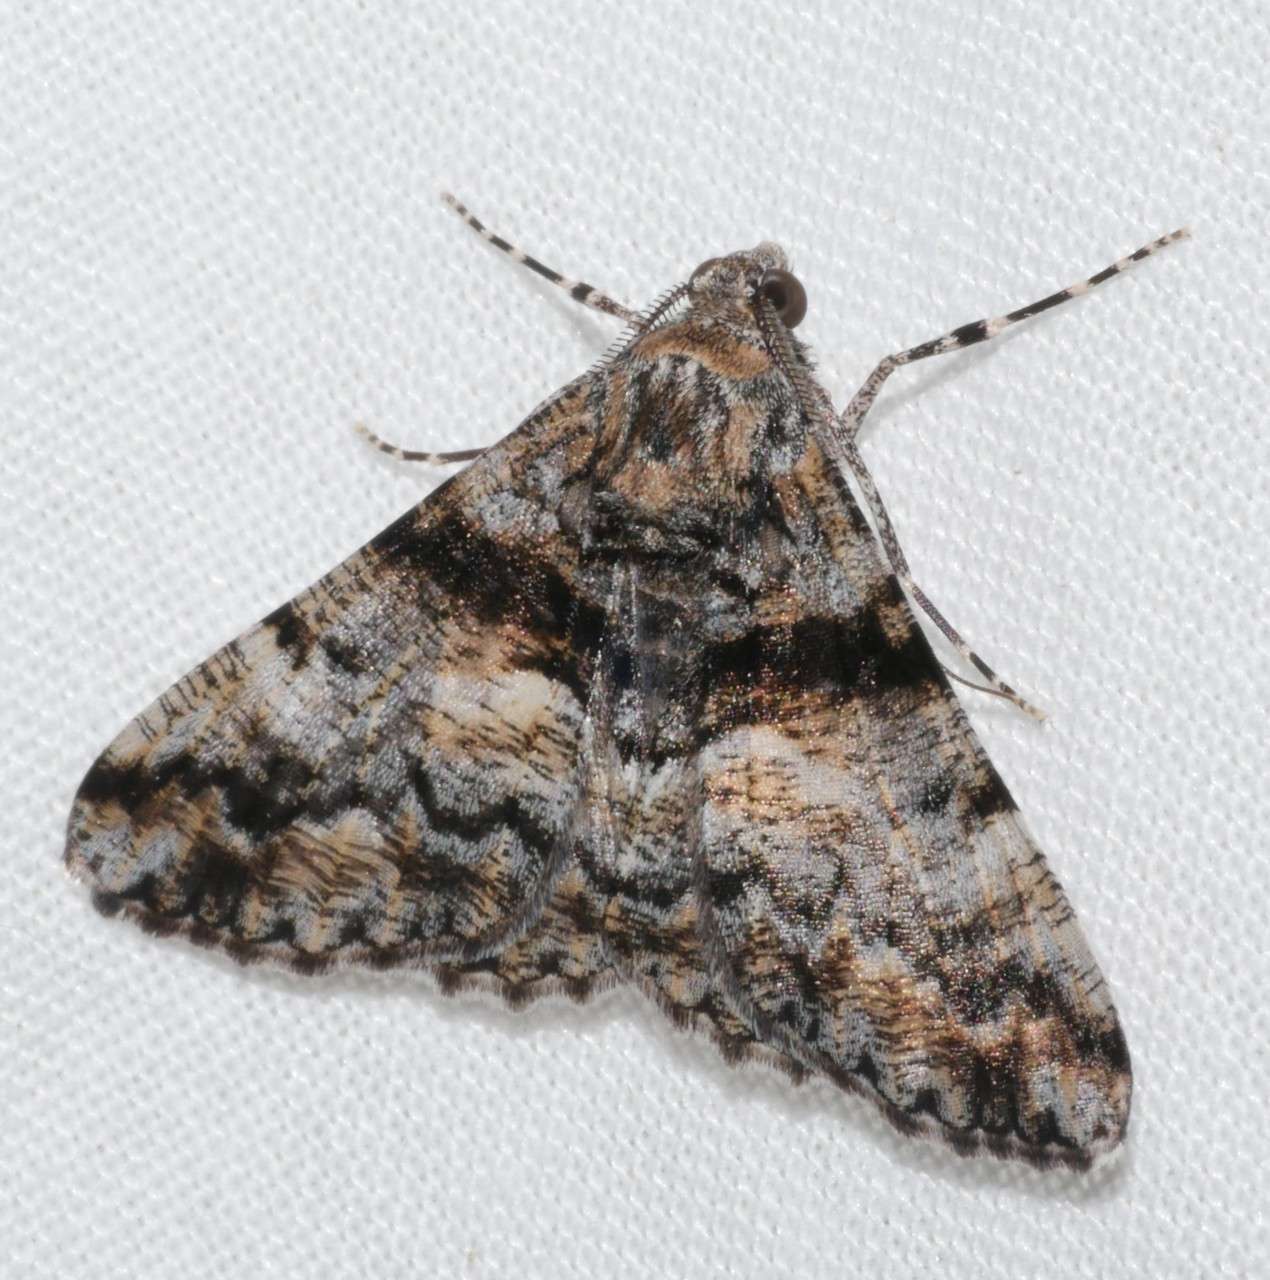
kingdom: Animalia
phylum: Arthropoda
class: Insecta
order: Lepidoptera
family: Geometridae
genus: Gastrinodes
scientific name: Gastrinodes argoplaca
